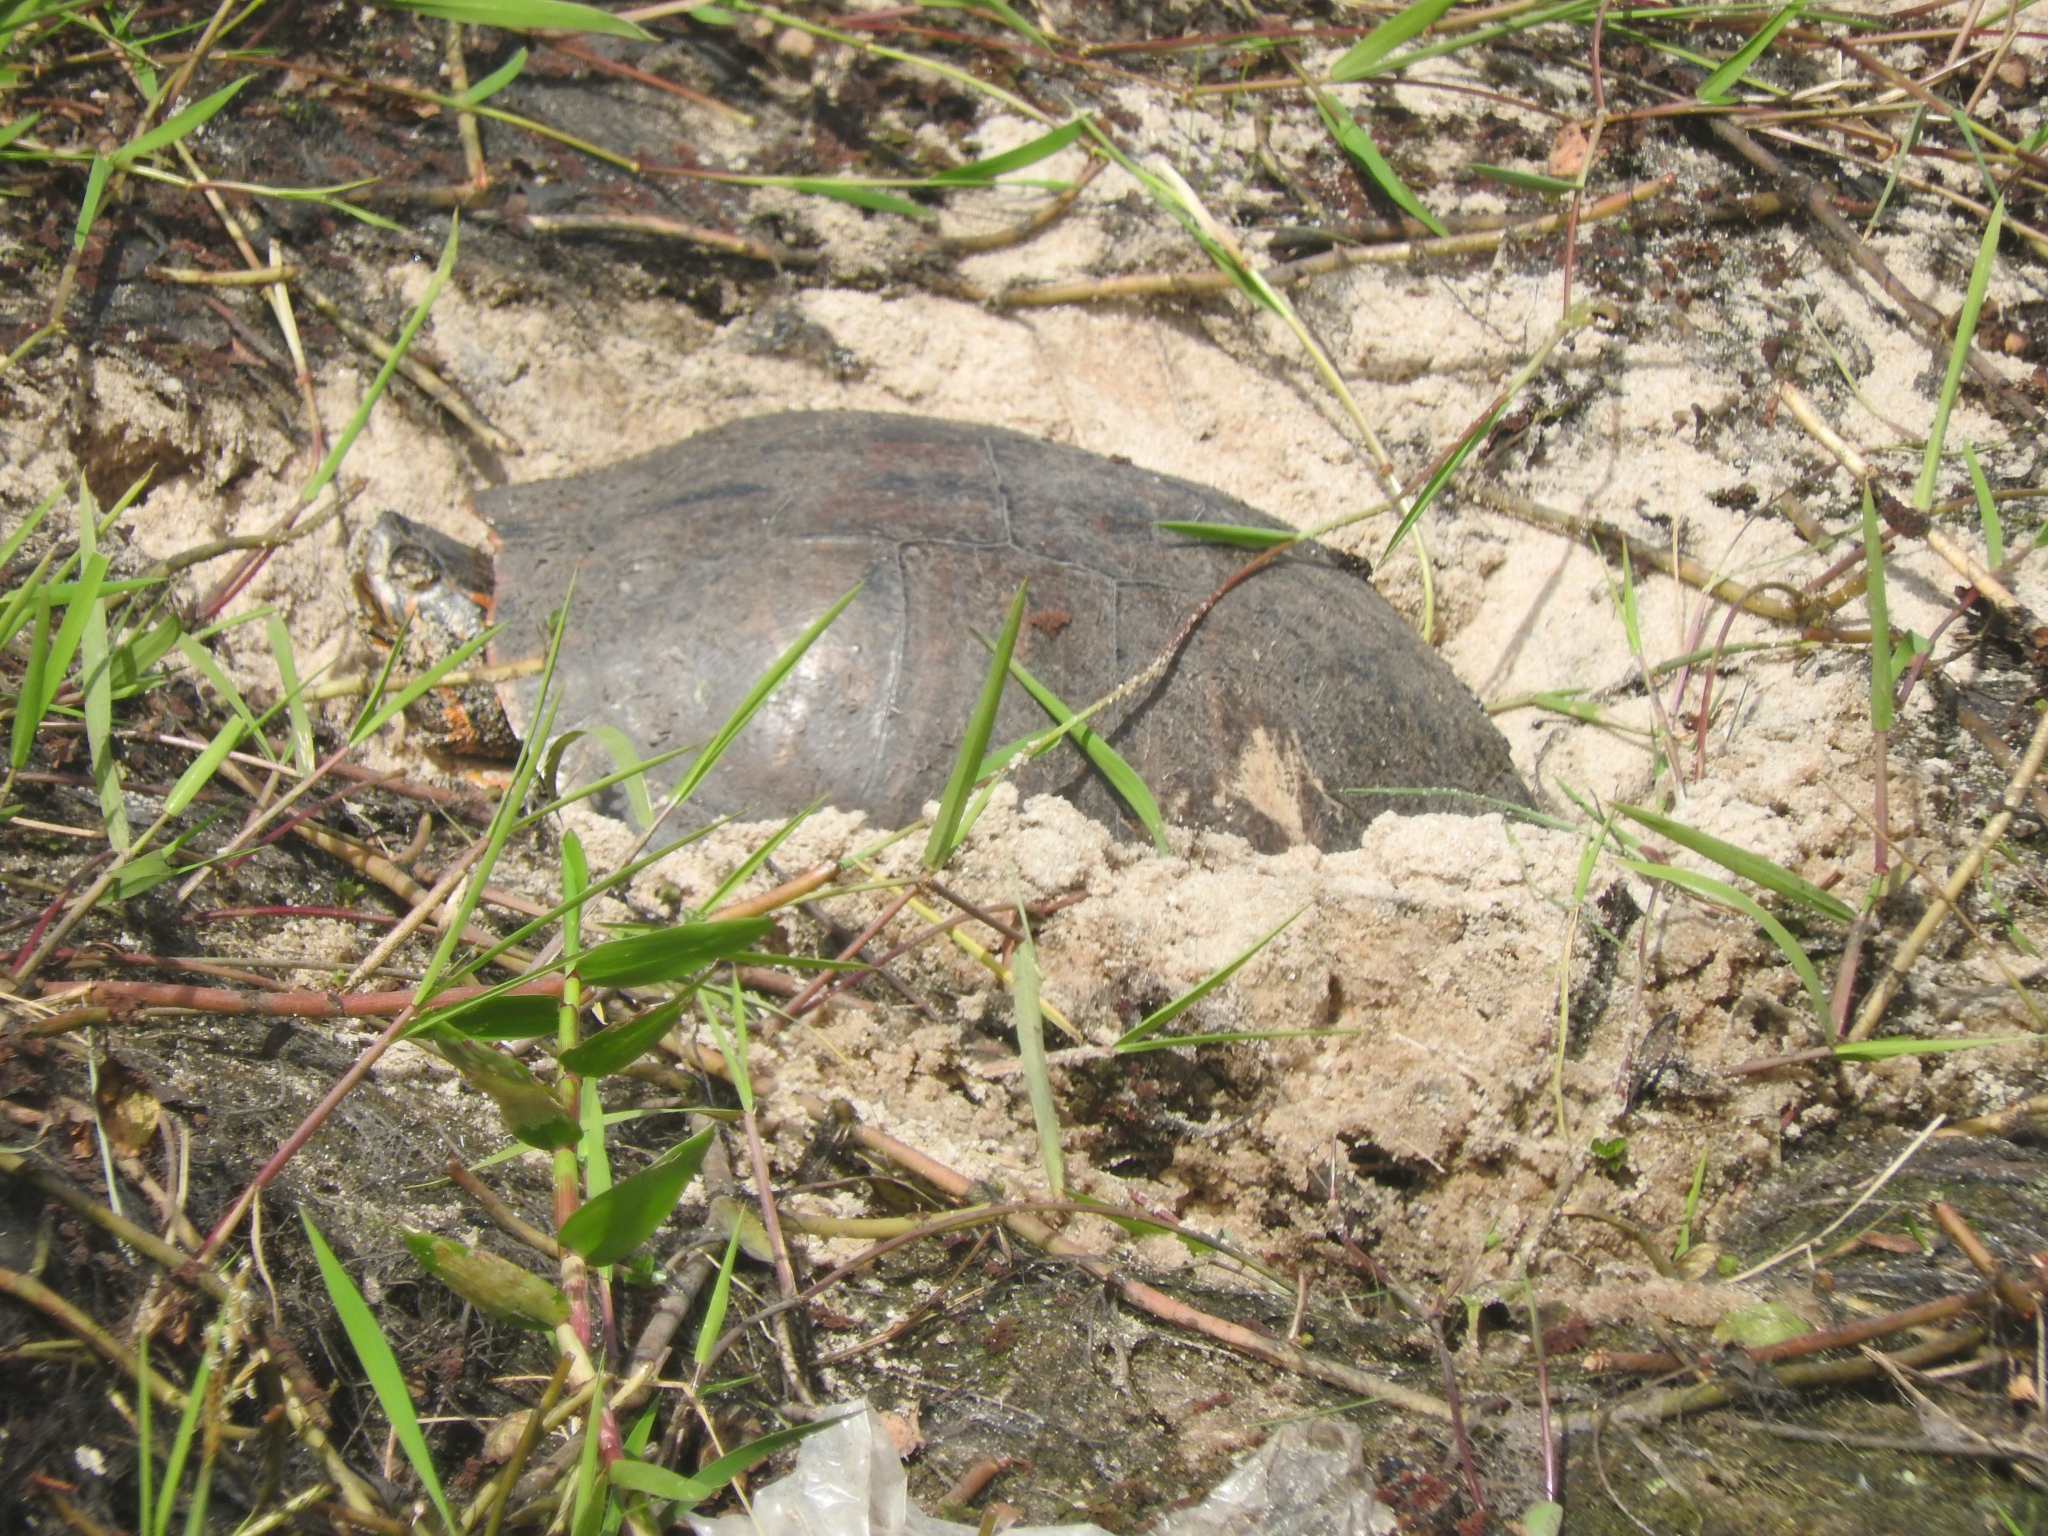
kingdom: Animalia
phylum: Chordata
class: Testudines
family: Emydidae
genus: Trachemys
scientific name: Trachemys dorbigni
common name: Black-bellied slider
